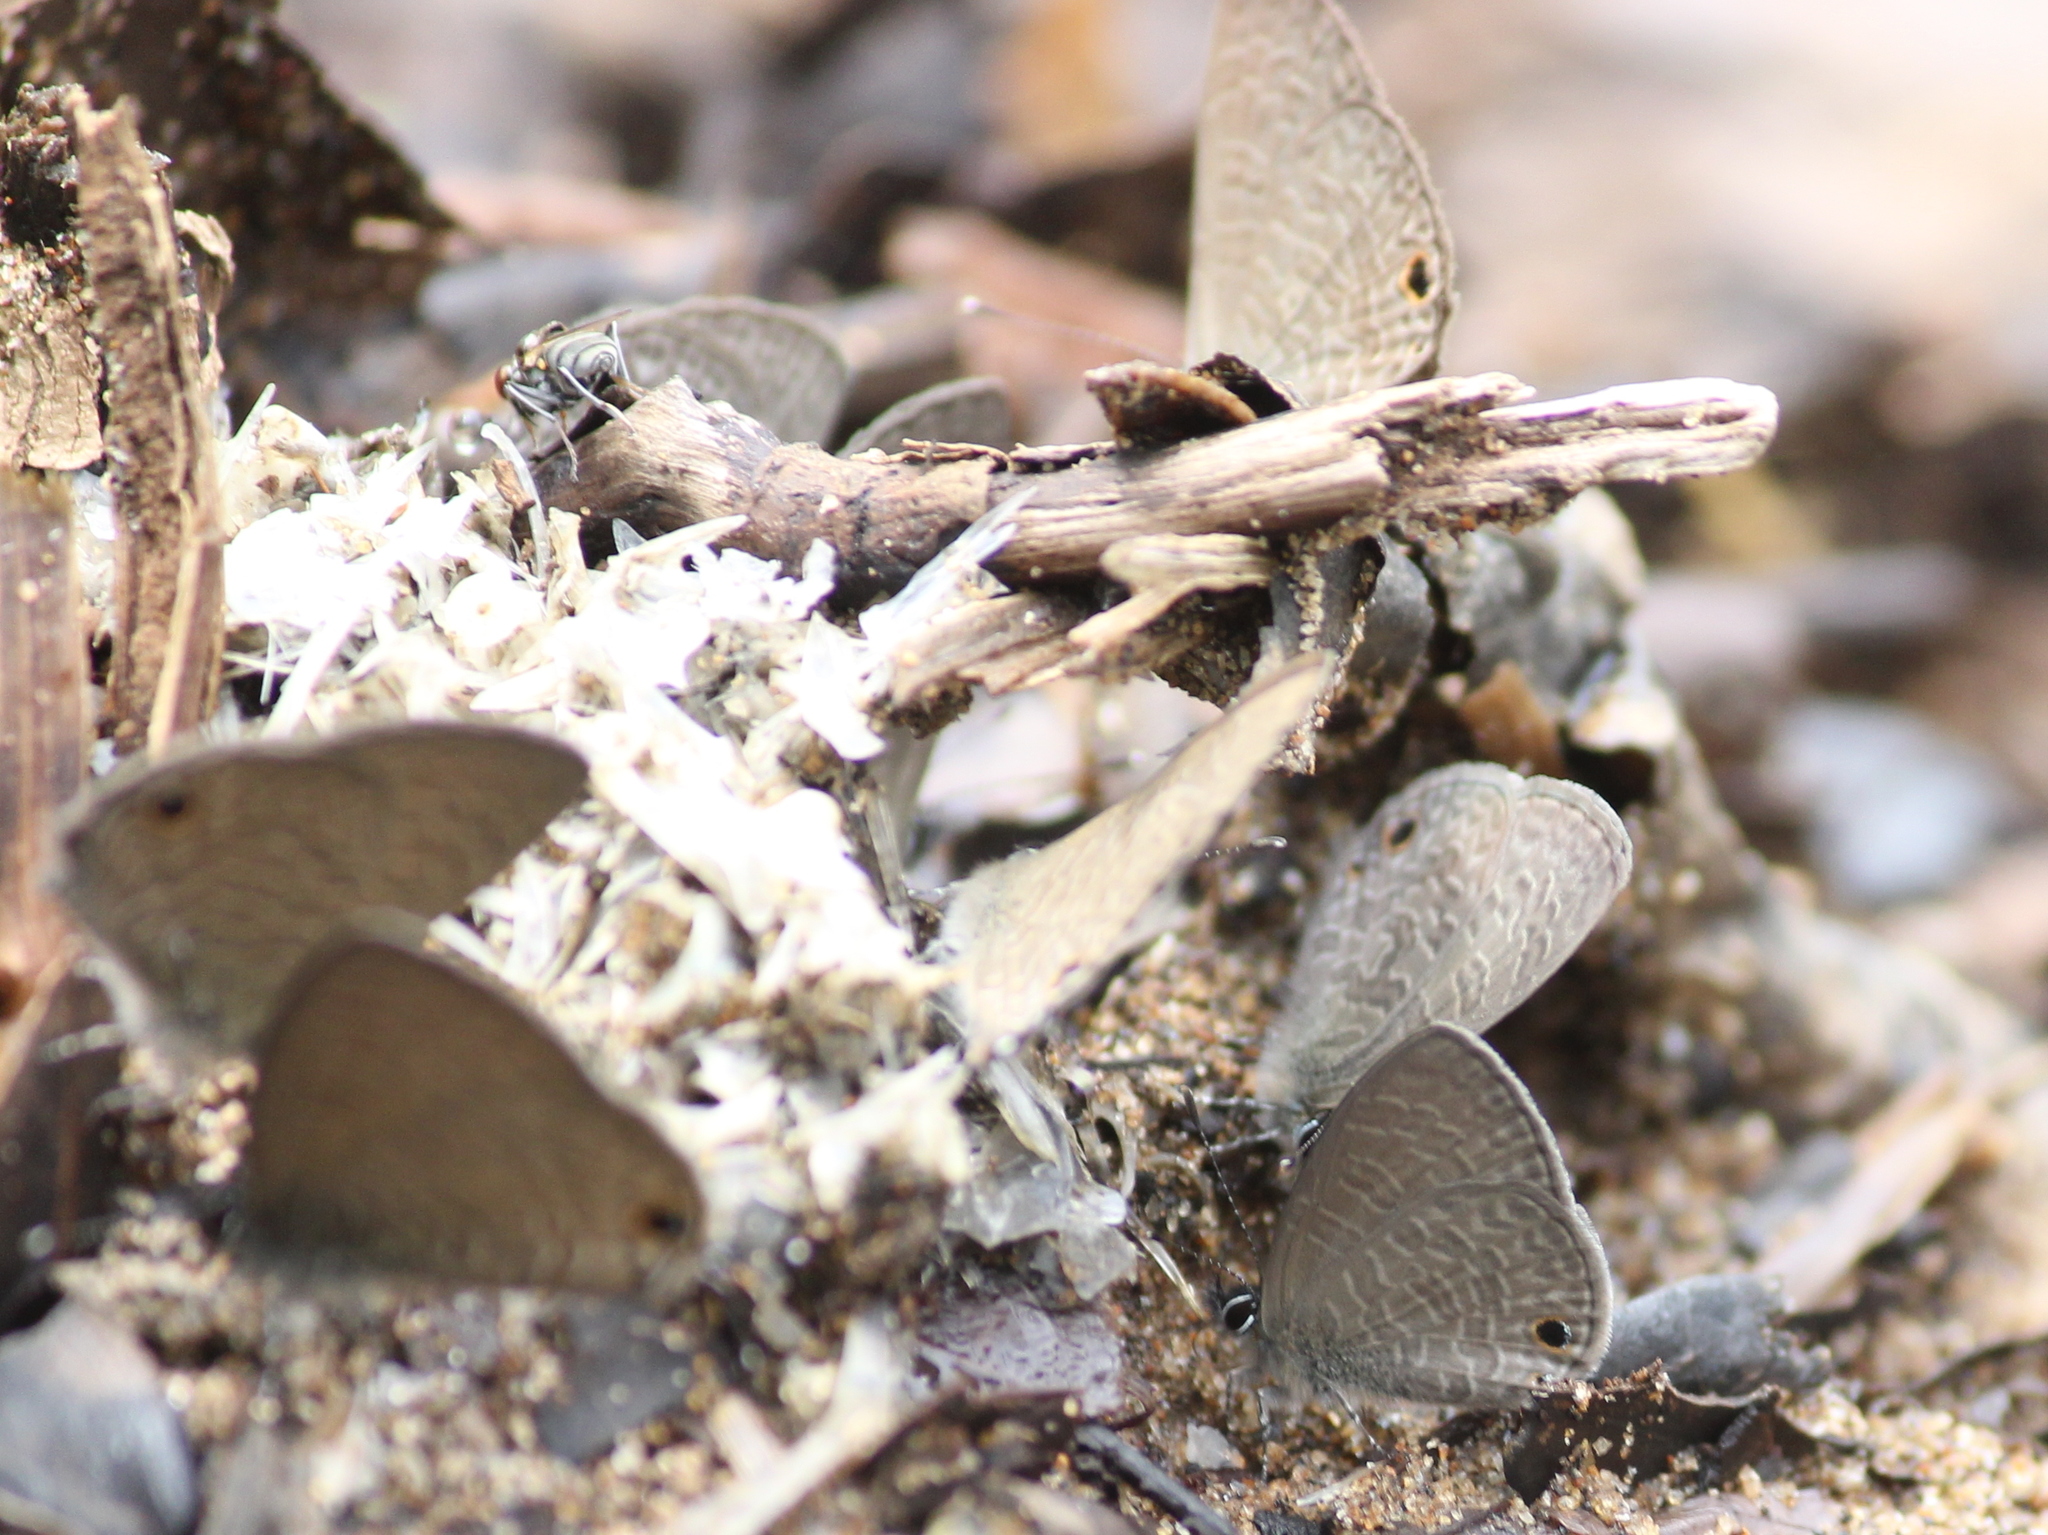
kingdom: Animalia
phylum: Arthropoda
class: Insecta
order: Lepidoptera
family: Lycaenidae
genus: Prosotas
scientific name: Prosotas dubiosa
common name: Tailless lineblue
